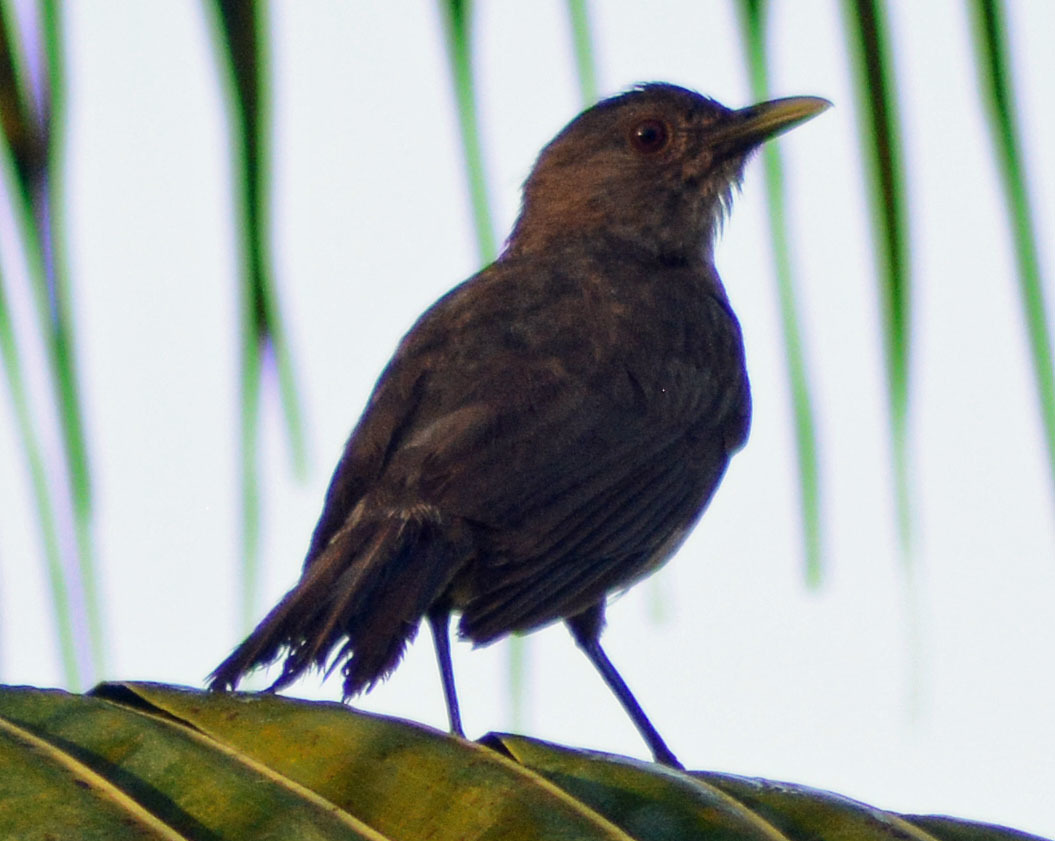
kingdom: Animalia
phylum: Chordata
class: Aves
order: Passeriformes
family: Turdidae
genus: Turdus
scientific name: Turdus grayi
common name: Clay-colored thrush
